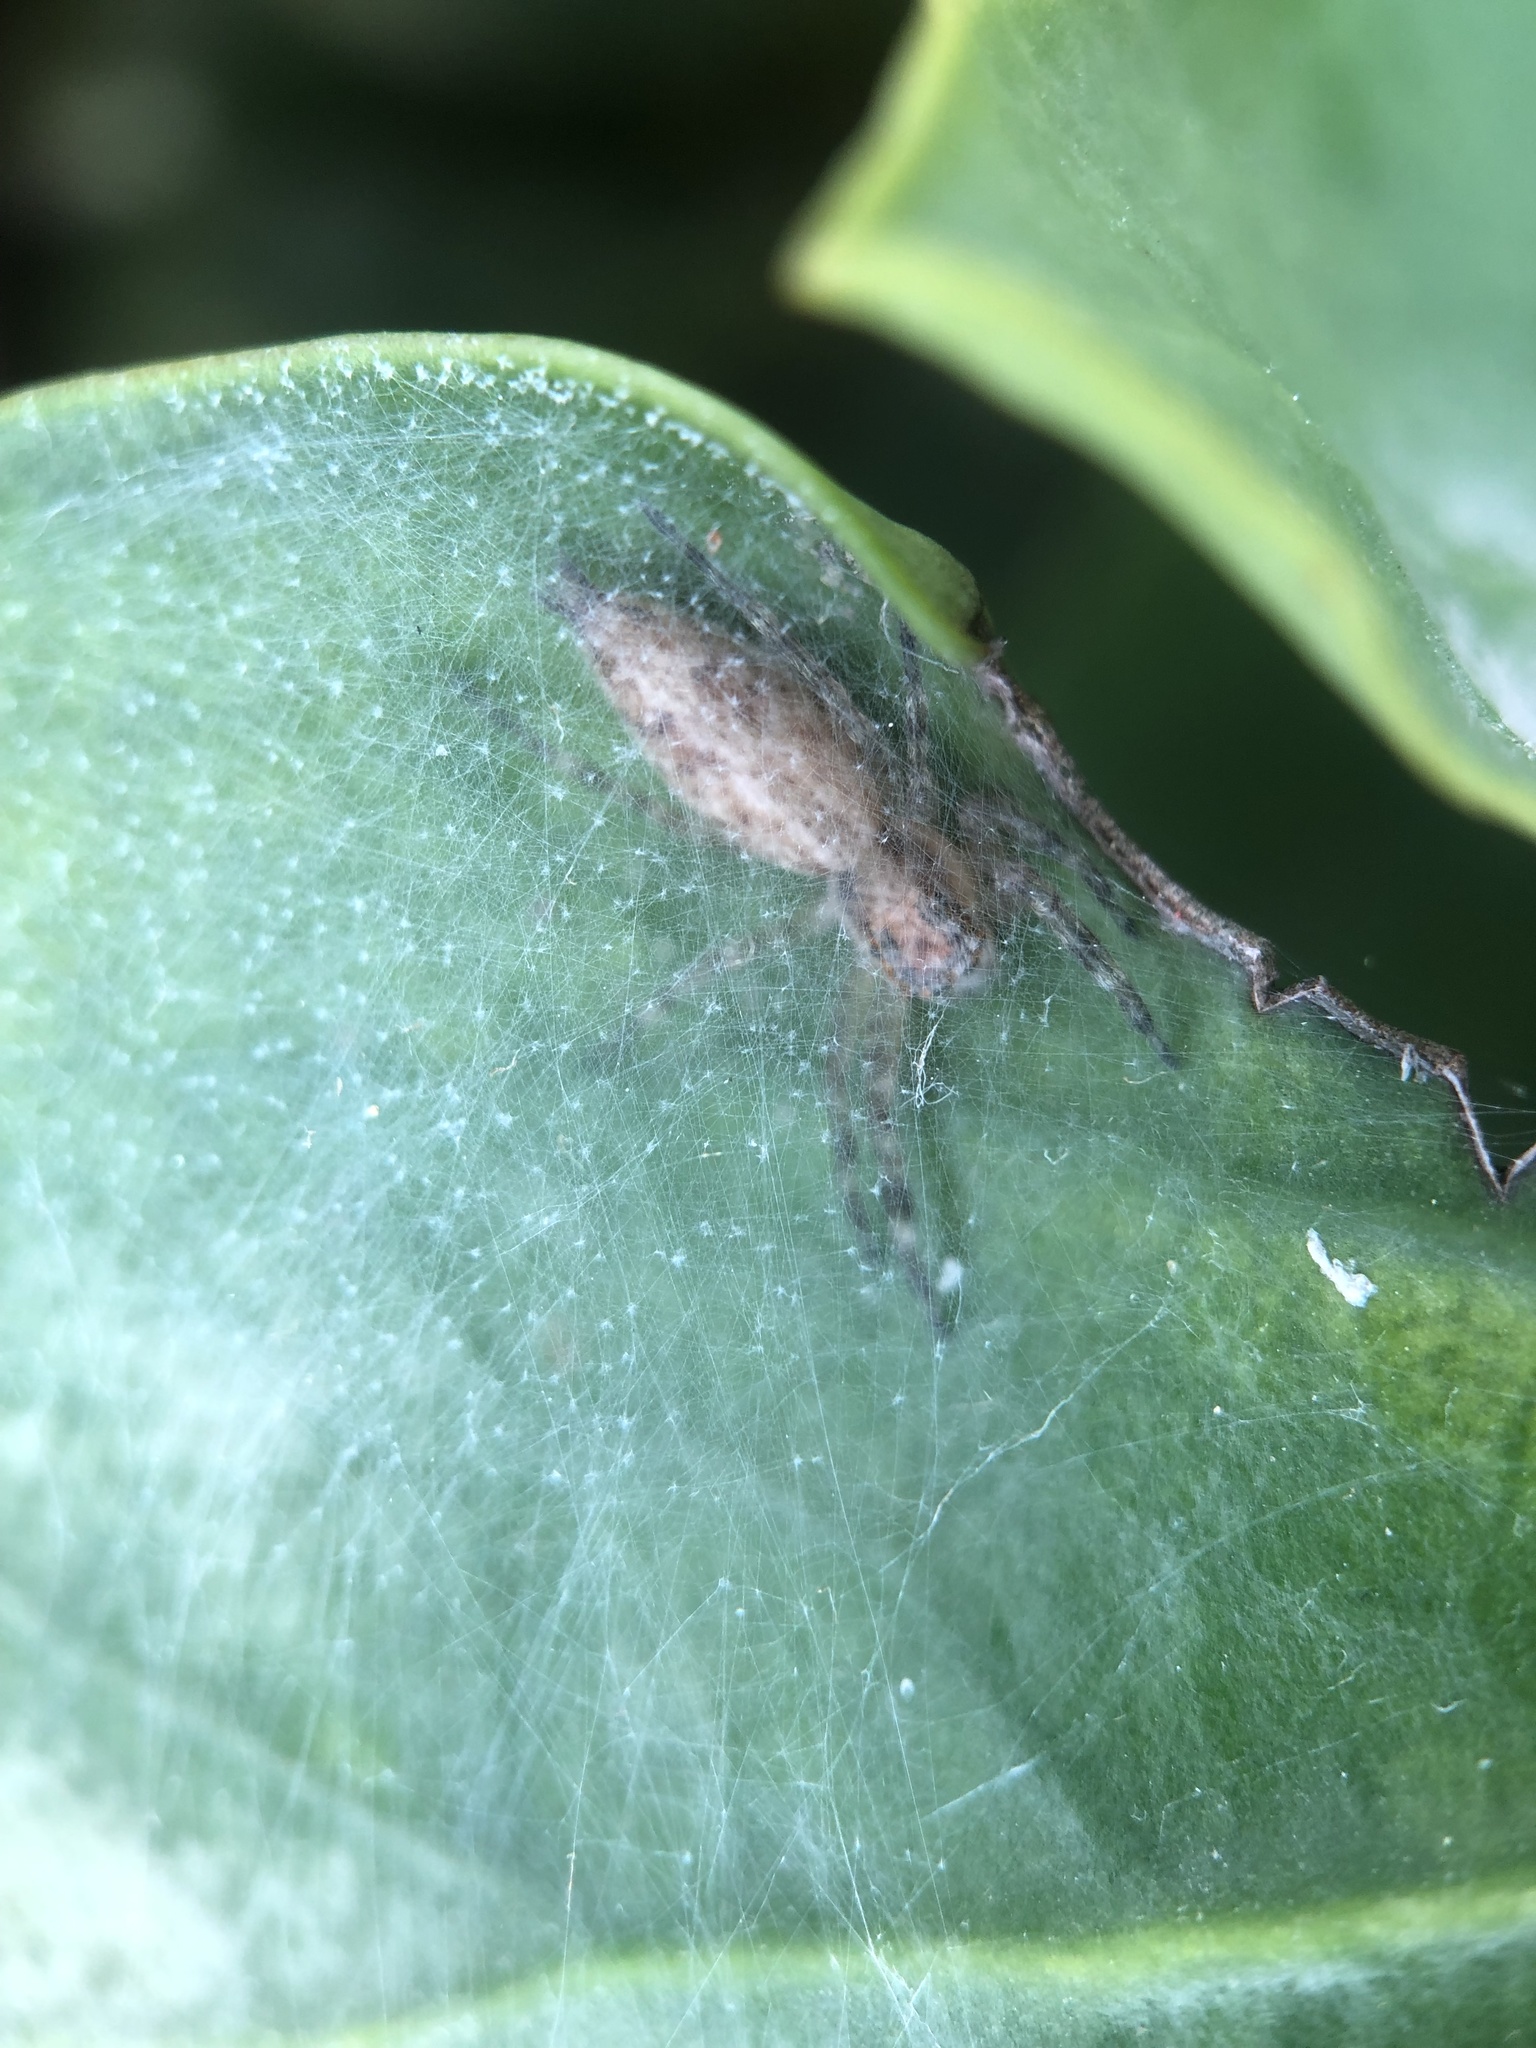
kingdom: Animalia
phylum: Arthropoda
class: Arachnida
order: Araneae
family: Salticidae
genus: Helpis
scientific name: Helpis minitabunda
